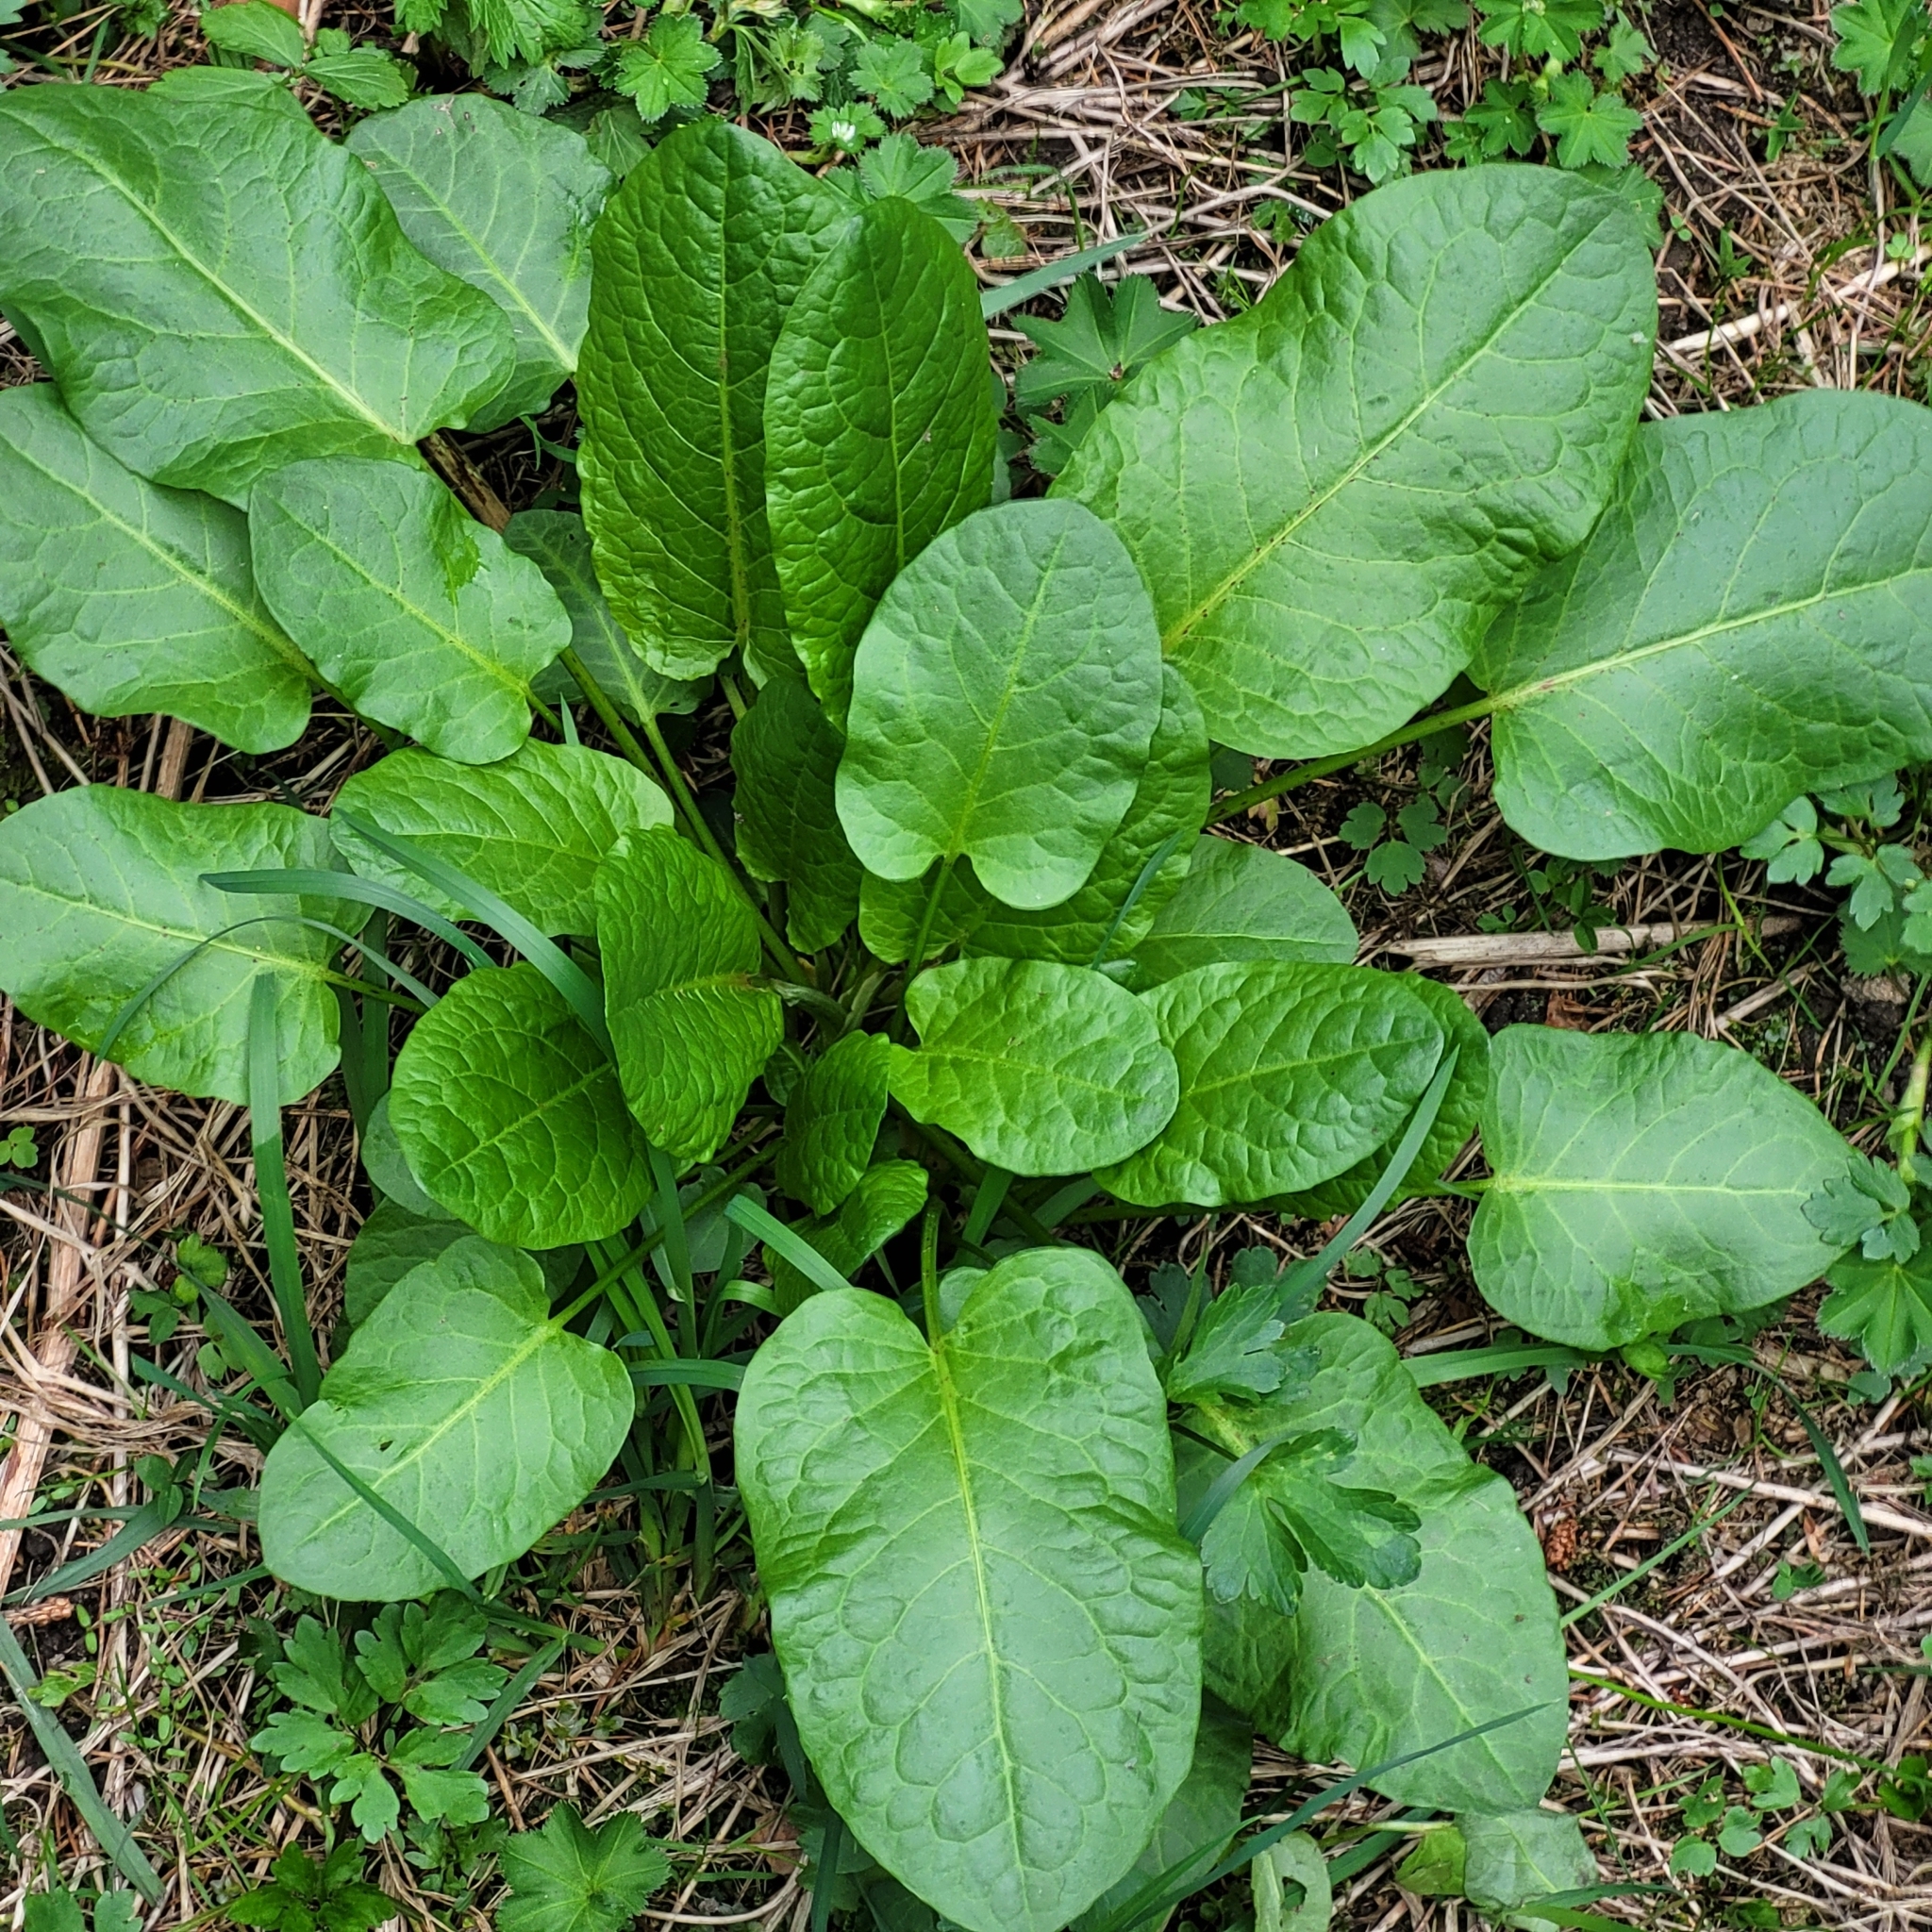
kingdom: Plantae
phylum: Tracheophyta
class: Magnoliopsida
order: Caryophyllales
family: Polygonaceae
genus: Rumex
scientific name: Rumex obtusifolius
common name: Bitter dock
